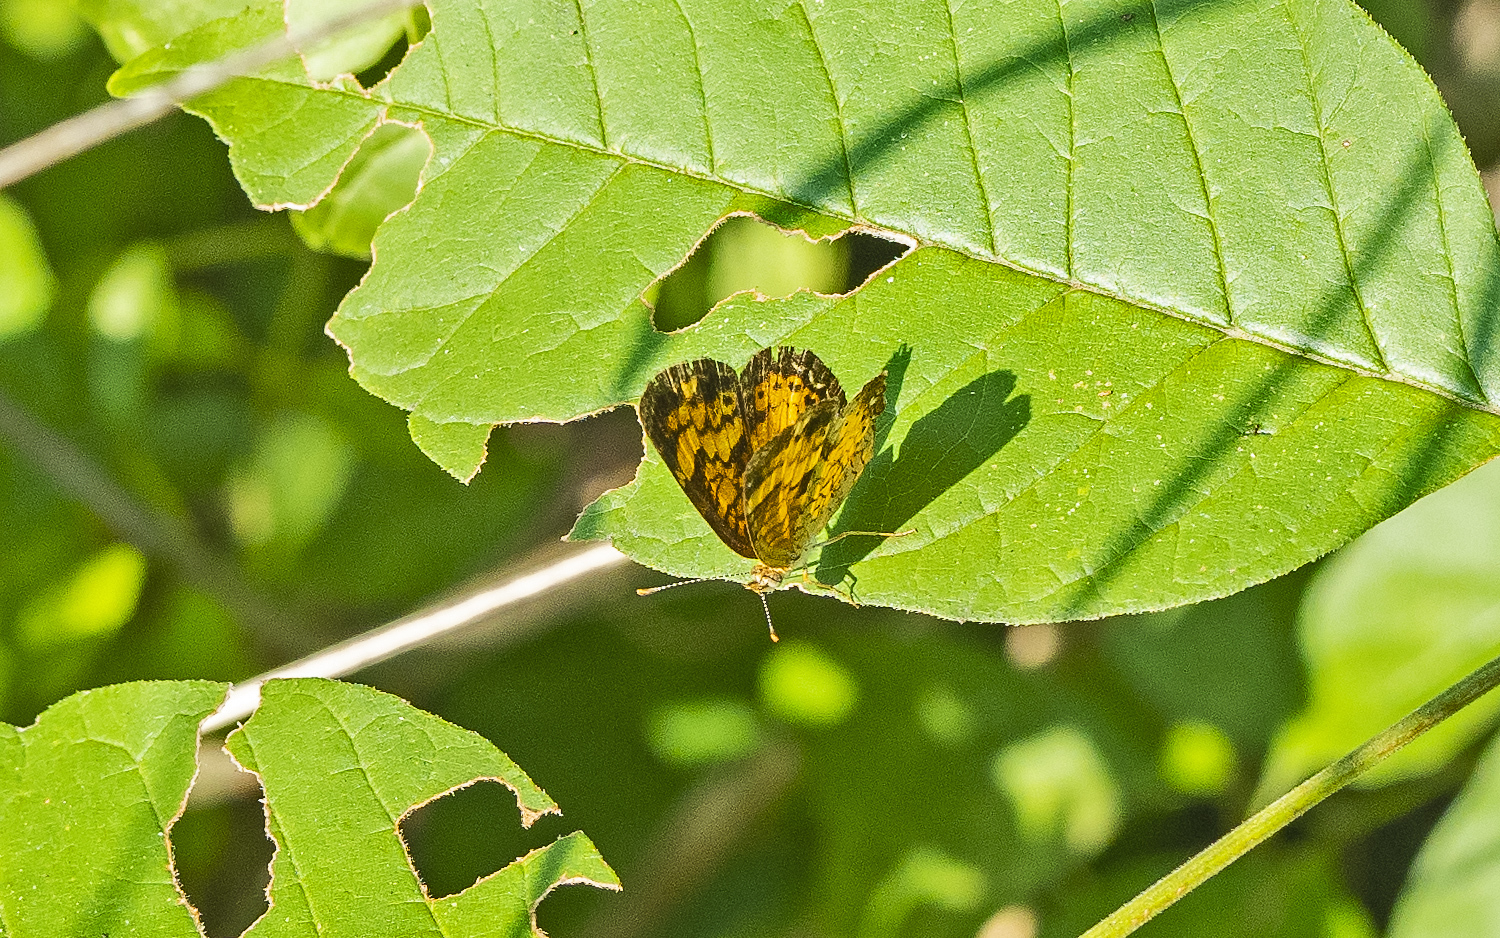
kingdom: Animalia
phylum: Arthropoda
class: Insecta
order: Lepidoptera
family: Nymphalidae
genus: Phyciodes
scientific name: Phyciodes tharos
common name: Pearl crescent
